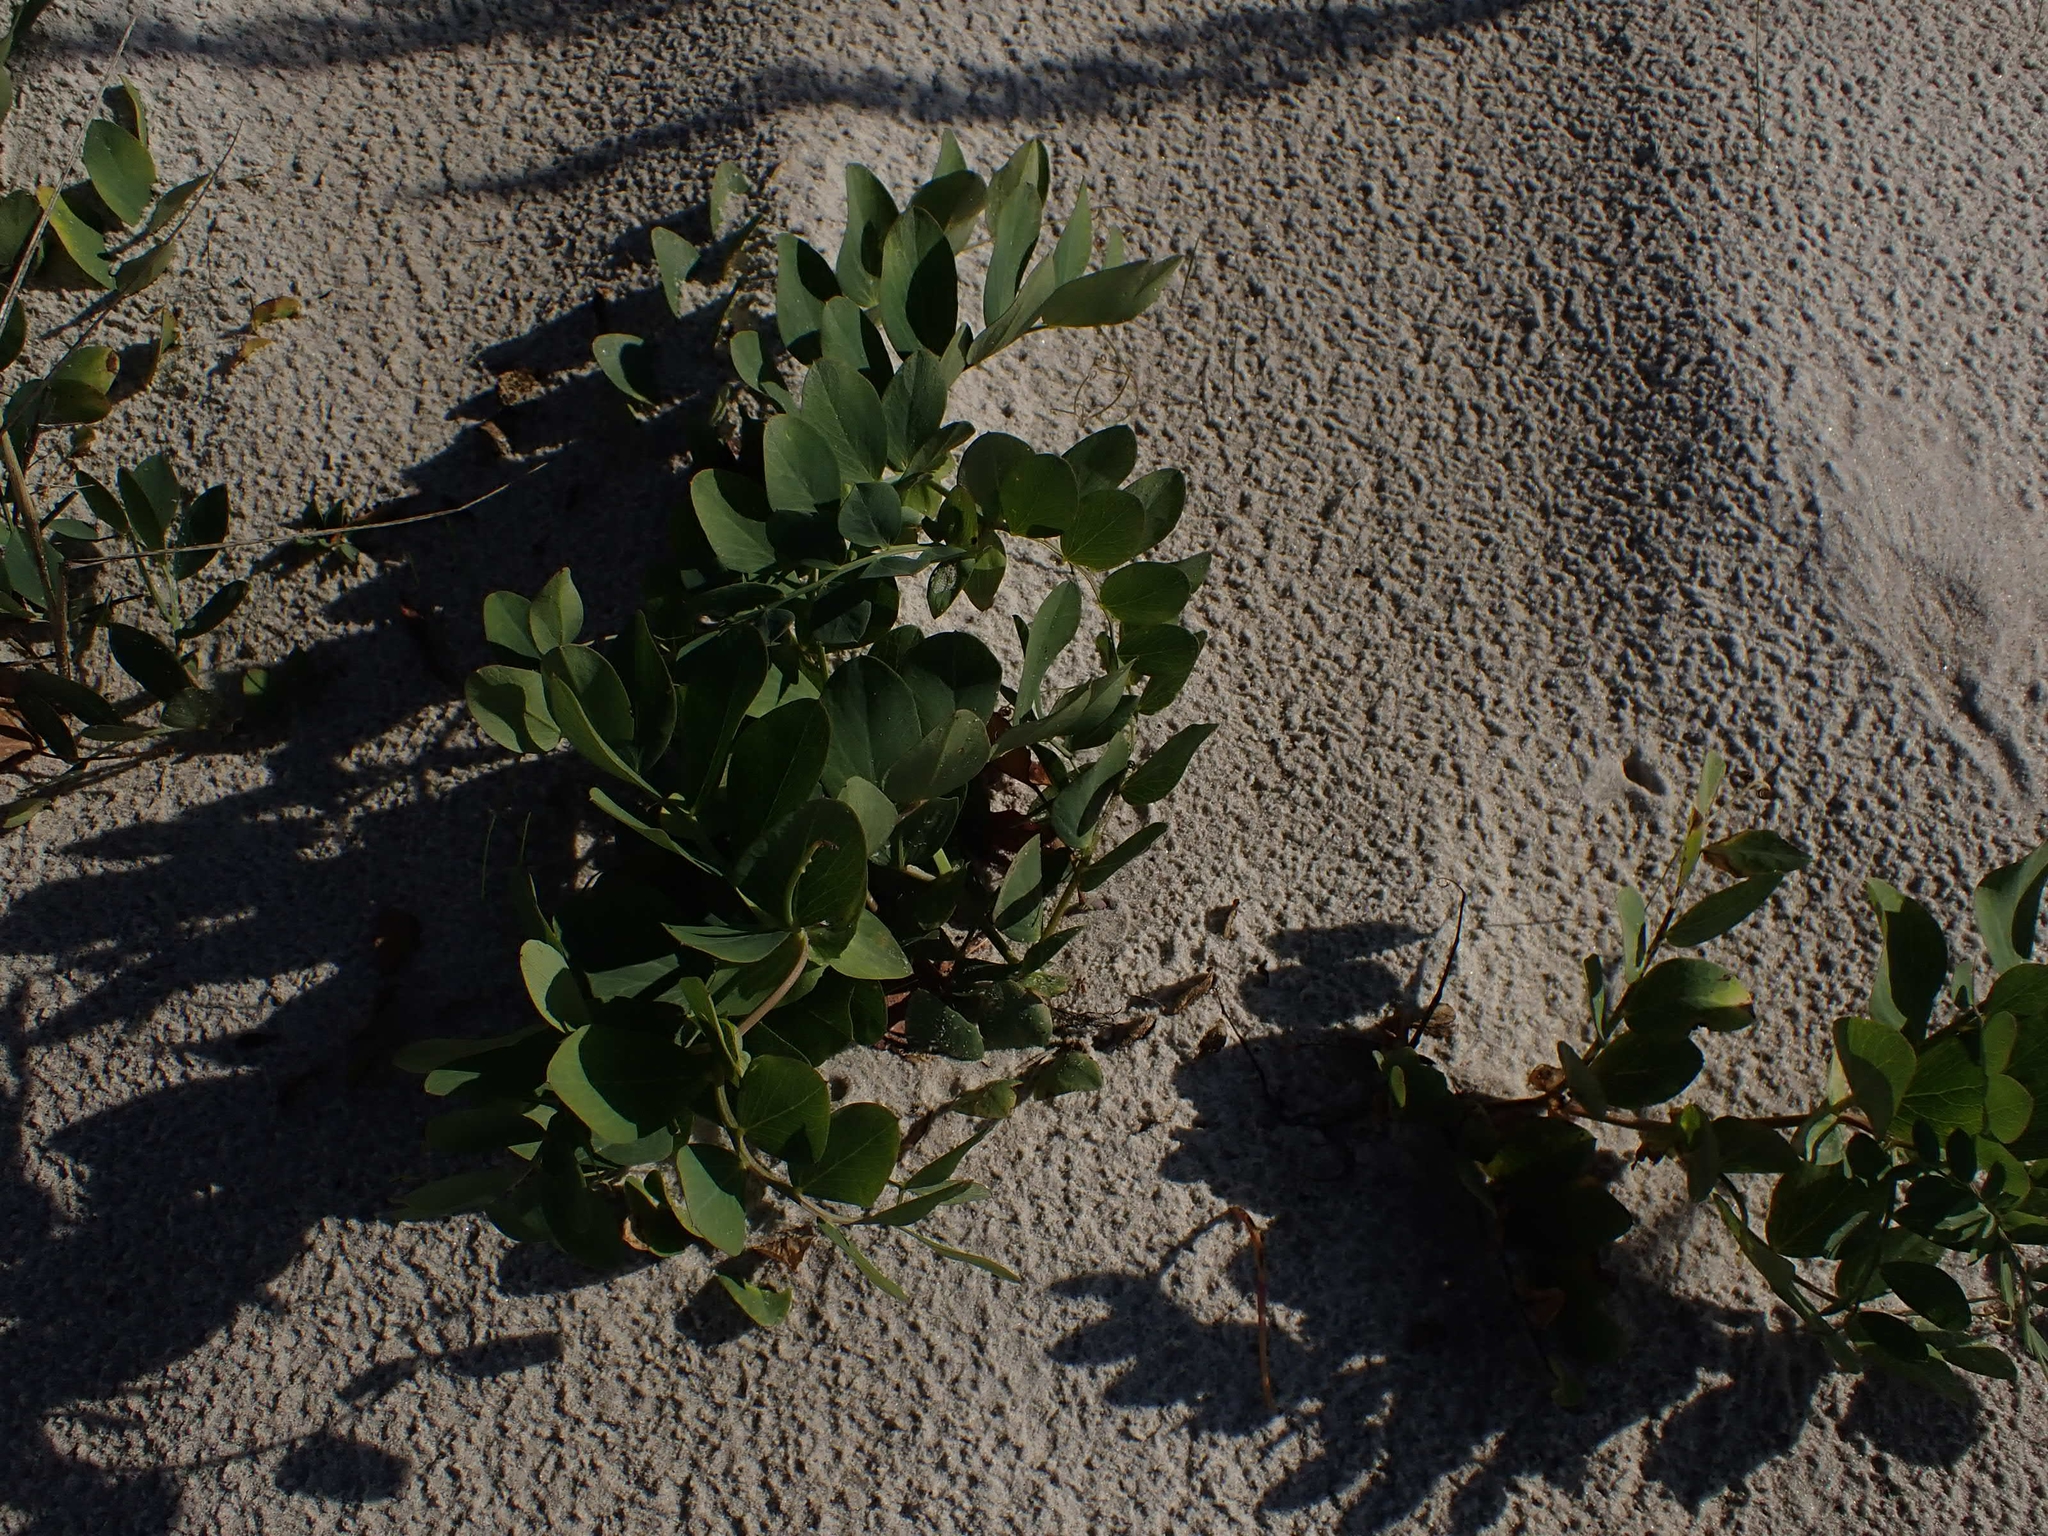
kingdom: Plantae
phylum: Tracheophyta
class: Magnoliopsida
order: Fabales
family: Fabaceae
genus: Lathyrus
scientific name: Lathyrus japonicus
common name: Sea pea
